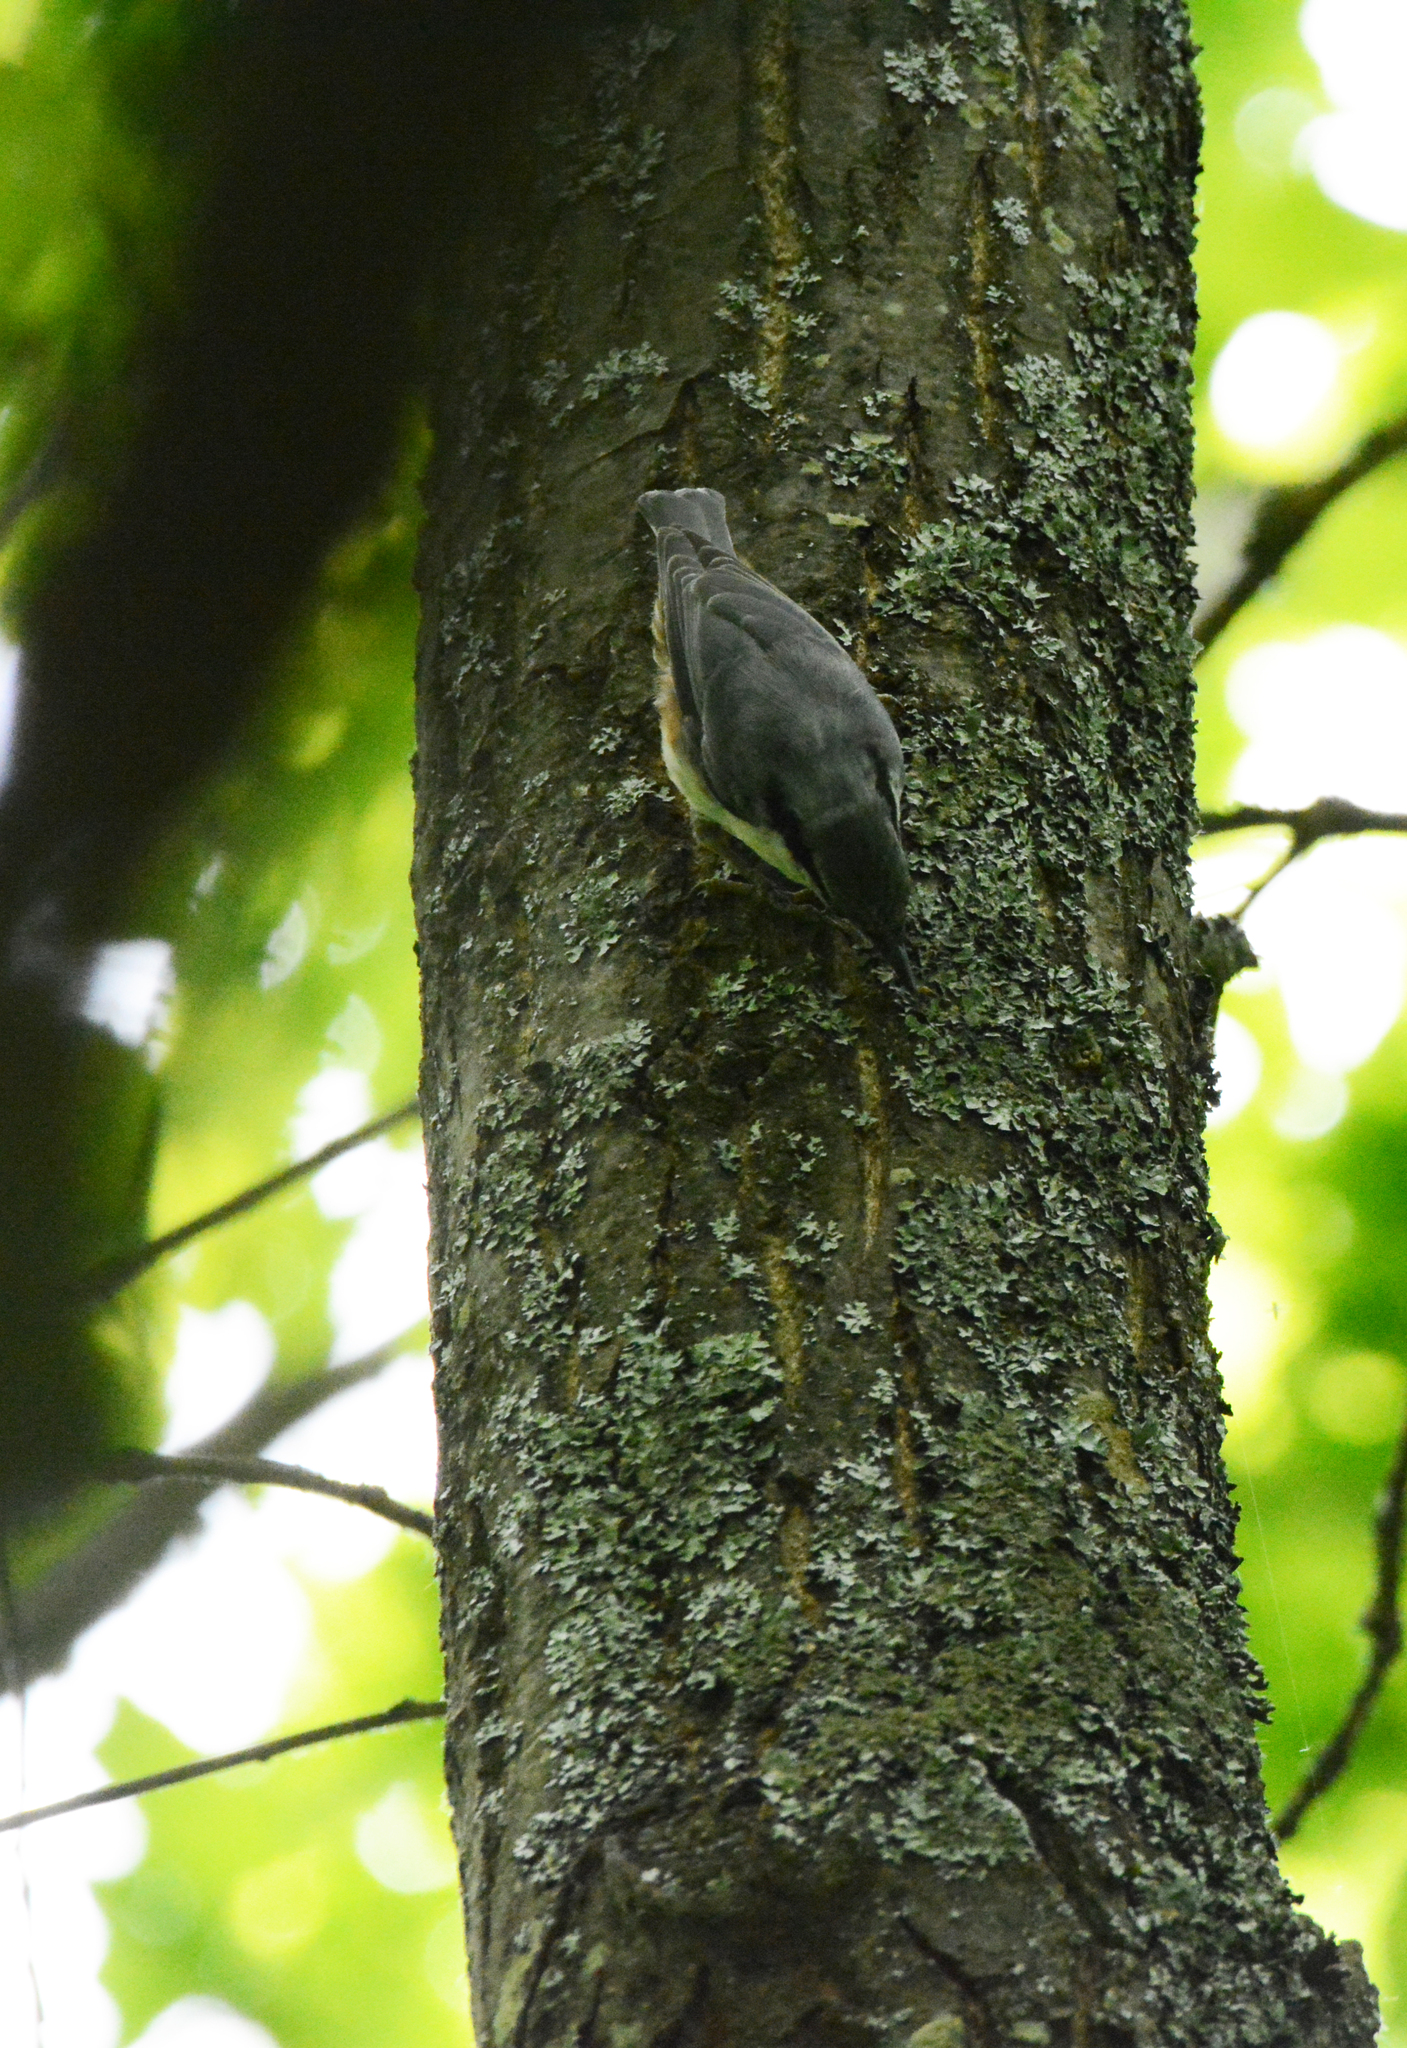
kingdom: Animalia
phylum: Chordata
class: Aves
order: Passeriformes
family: Sittidae
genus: Sitta
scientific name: Sitta europaea
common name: Eurasian nuthatch
